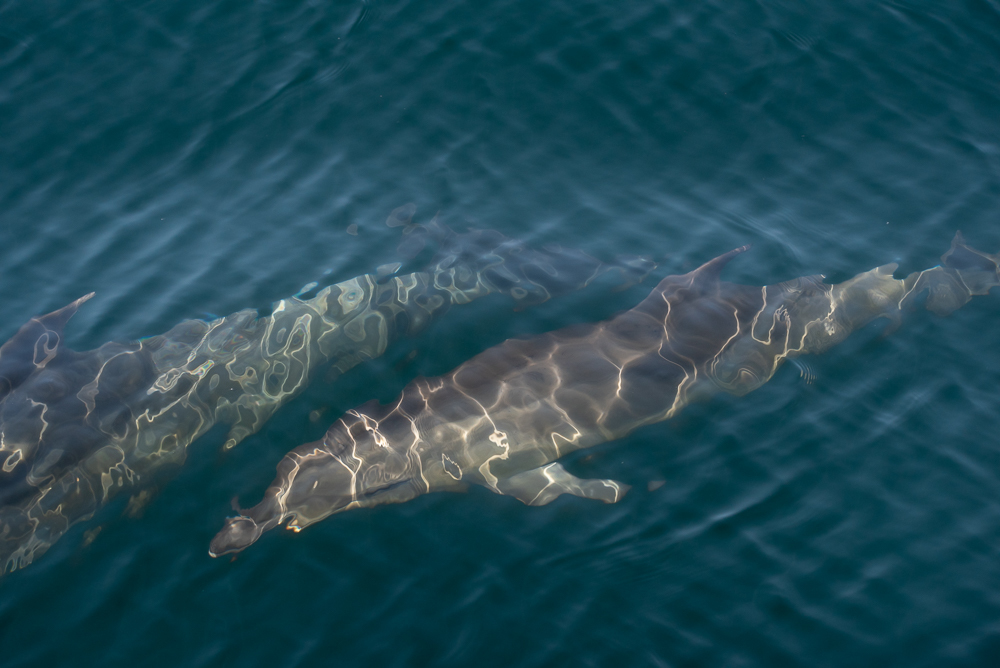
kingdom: Animalia
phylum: Chordata
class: Mammalia
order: Cetacea
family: Delphinidae
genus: Tursiops
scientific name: Tursiops truncatus
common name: Bottlenose dolphin
